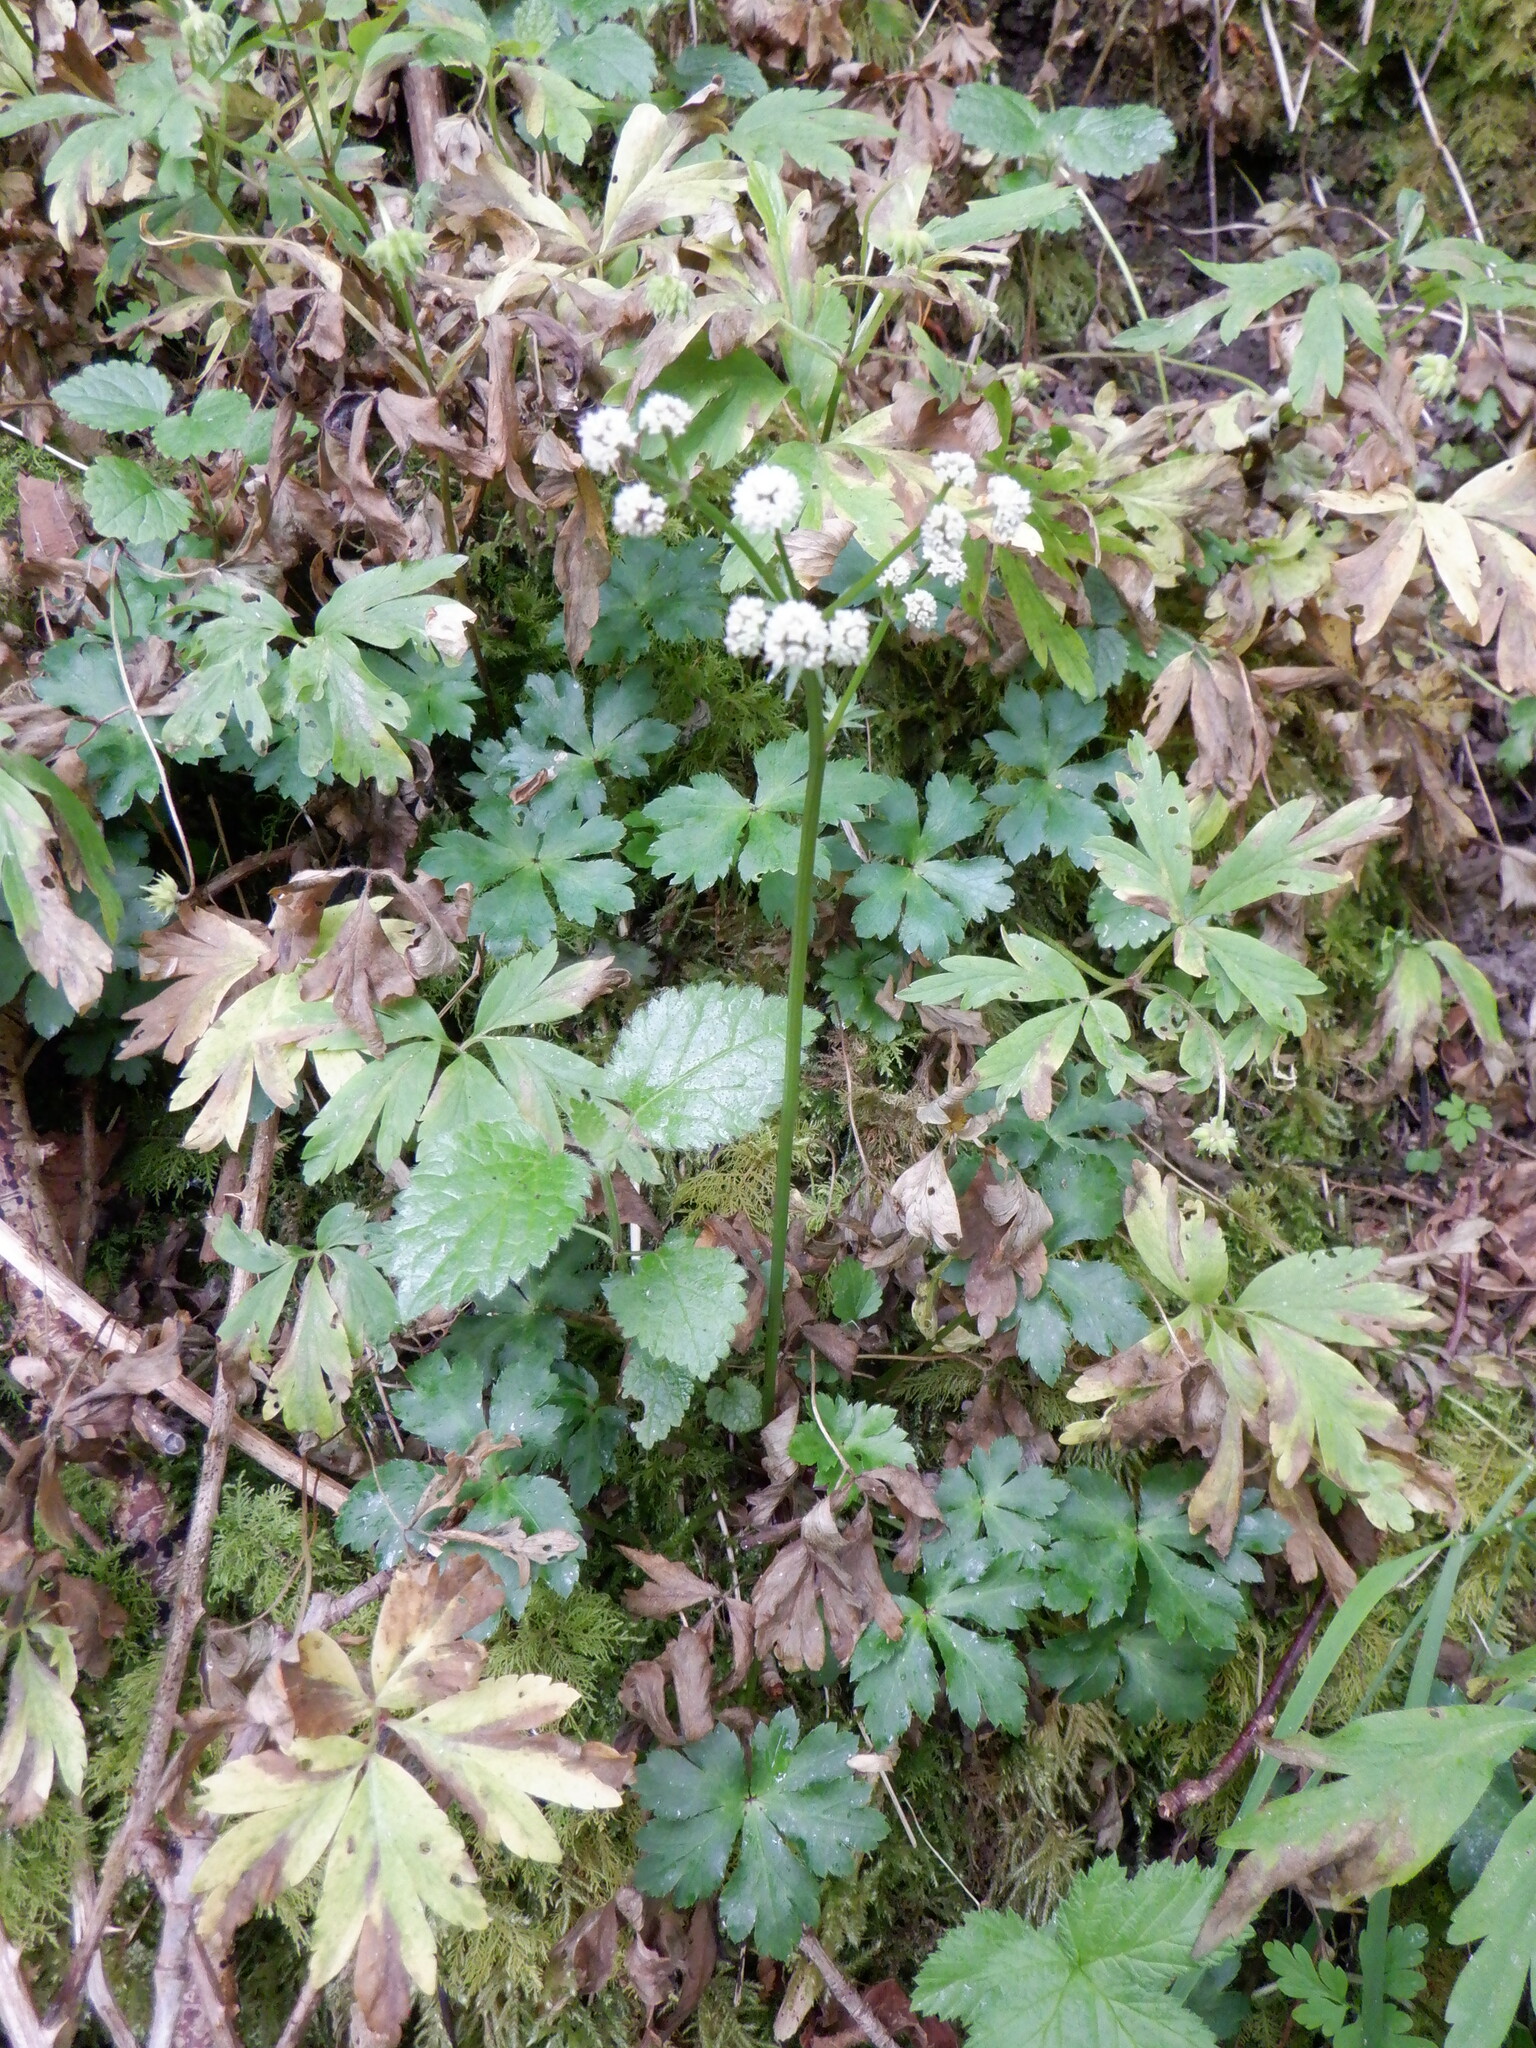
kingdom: Plantae
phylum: Tracheophyta
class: Magnoliopsida
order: Apiales
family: Apiaceae
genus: Sanicula
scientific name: Sanicula europaea
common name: Sanicle
